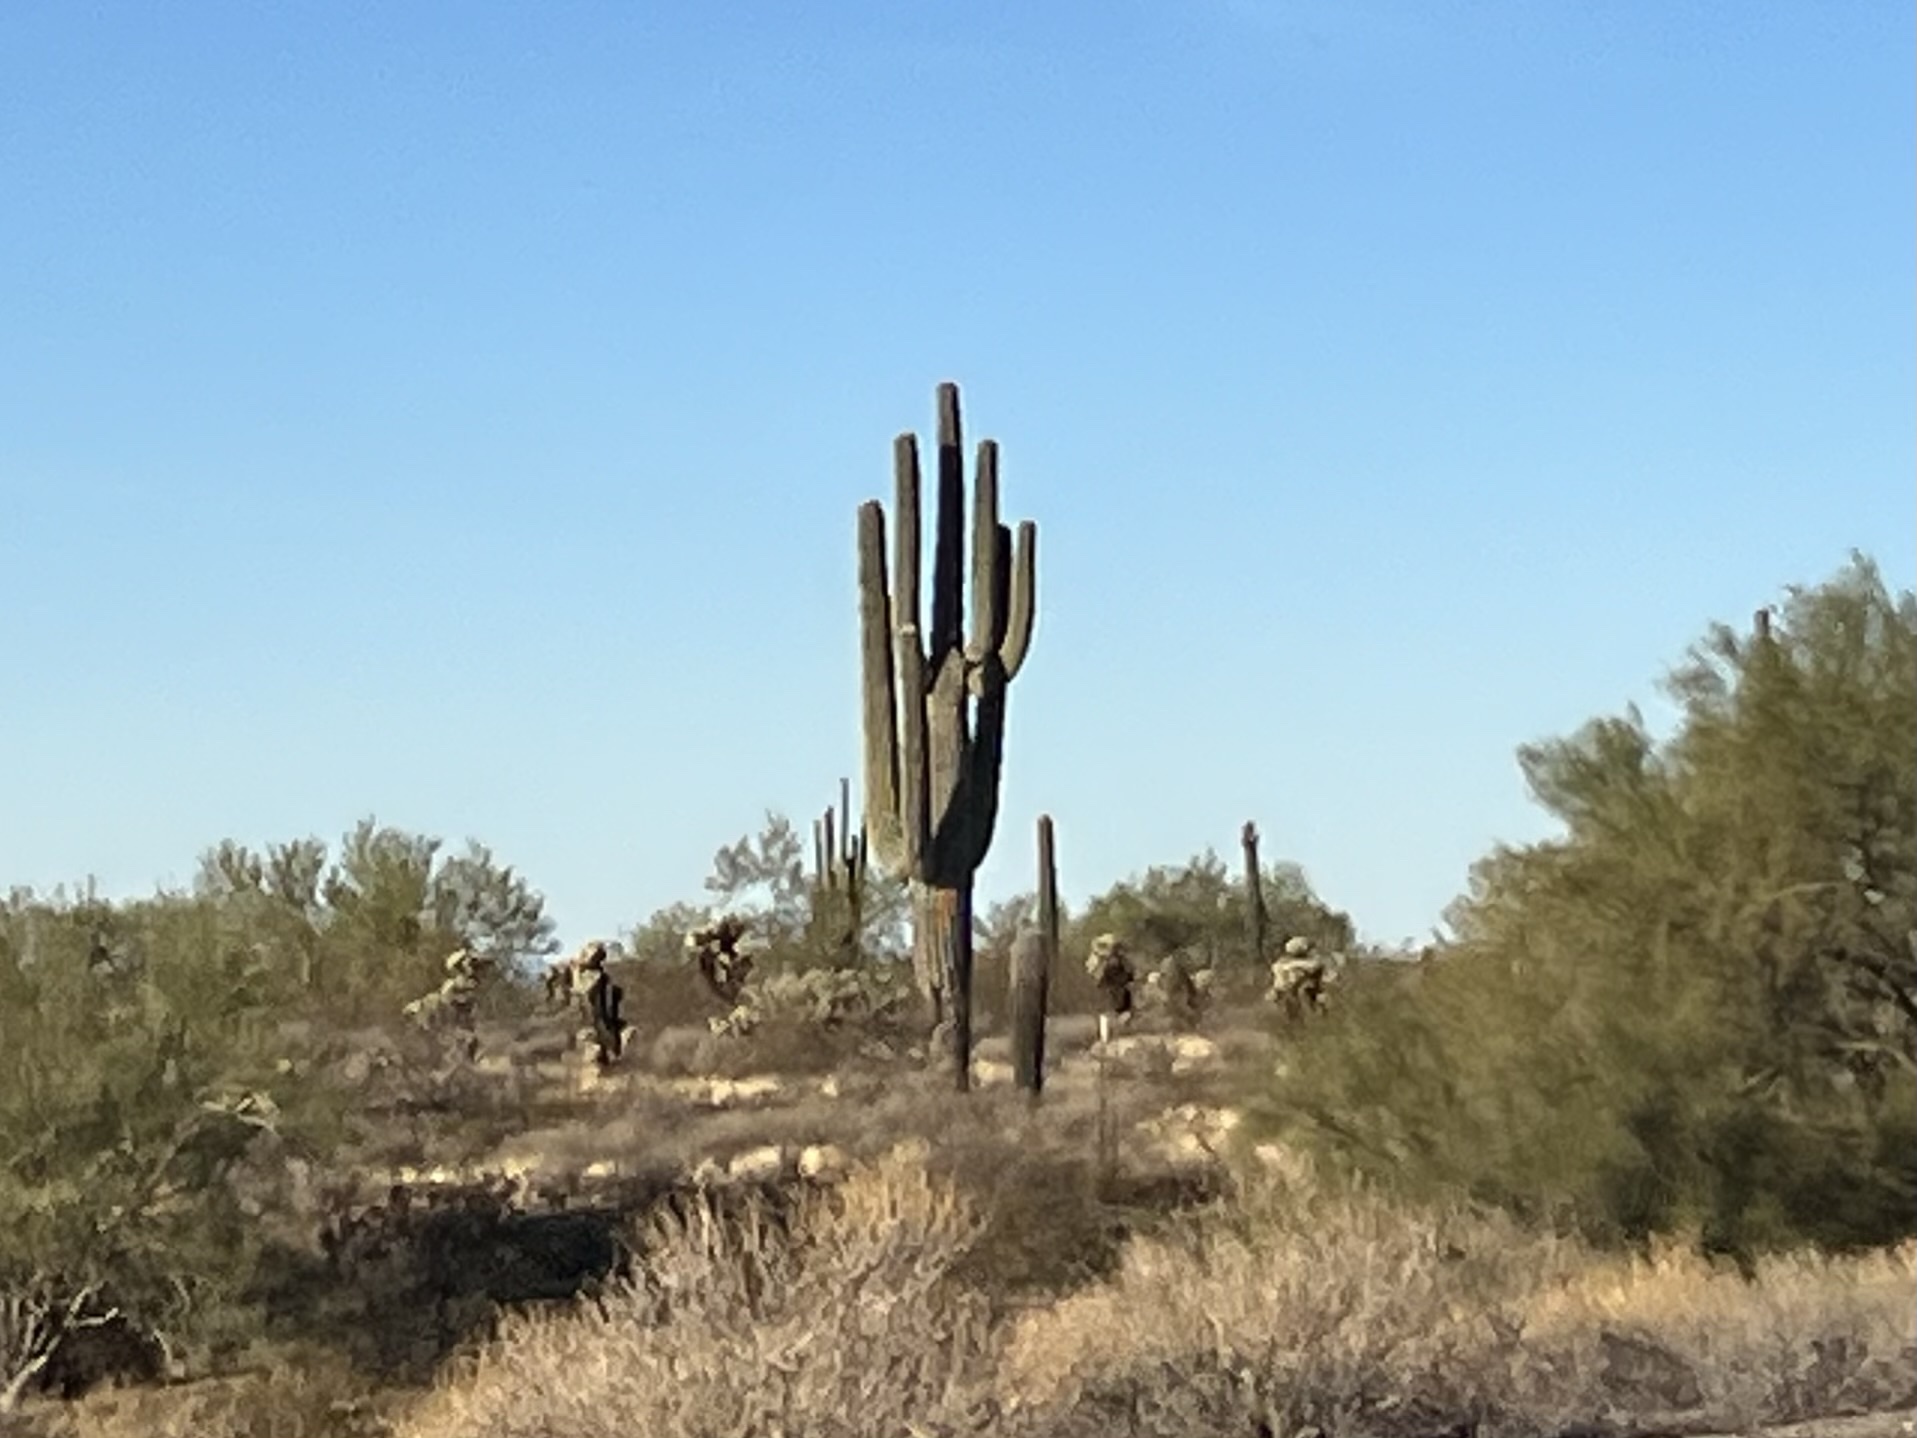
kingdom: Plantae
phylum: Tracheophyta
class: Magnoliopsida
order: Caryophyllales
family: Cactaceae
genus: Carnegiea
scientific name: Carnegiea gigantea
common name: Saguaro
